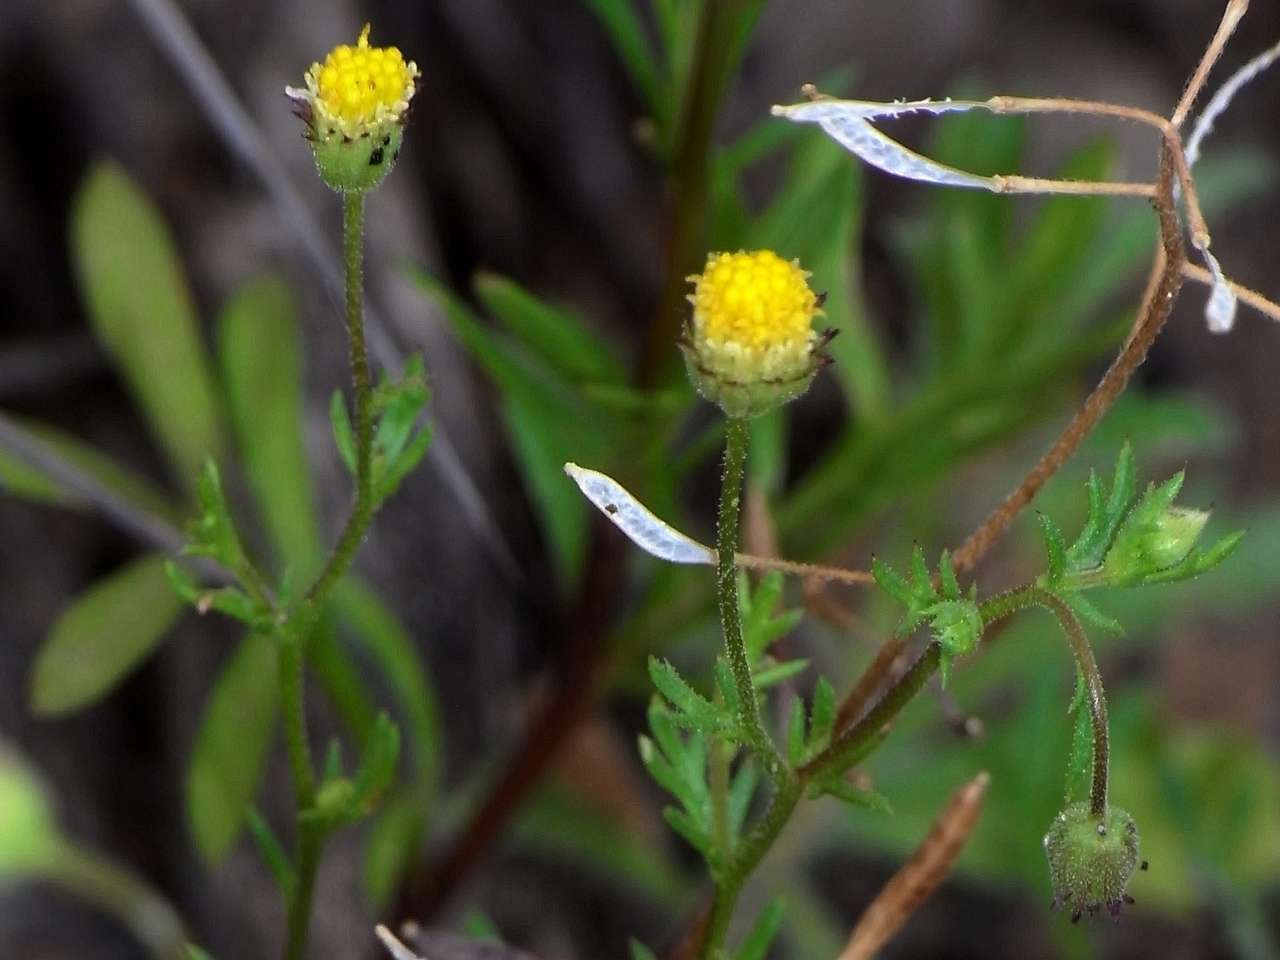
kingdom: Plantae
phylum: Tracheophyta
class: Magnoliopsida
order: Asterales
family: Asteraceae
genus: Brachyscome
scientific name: Brachyscome ciliaris
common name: Variable daisy
